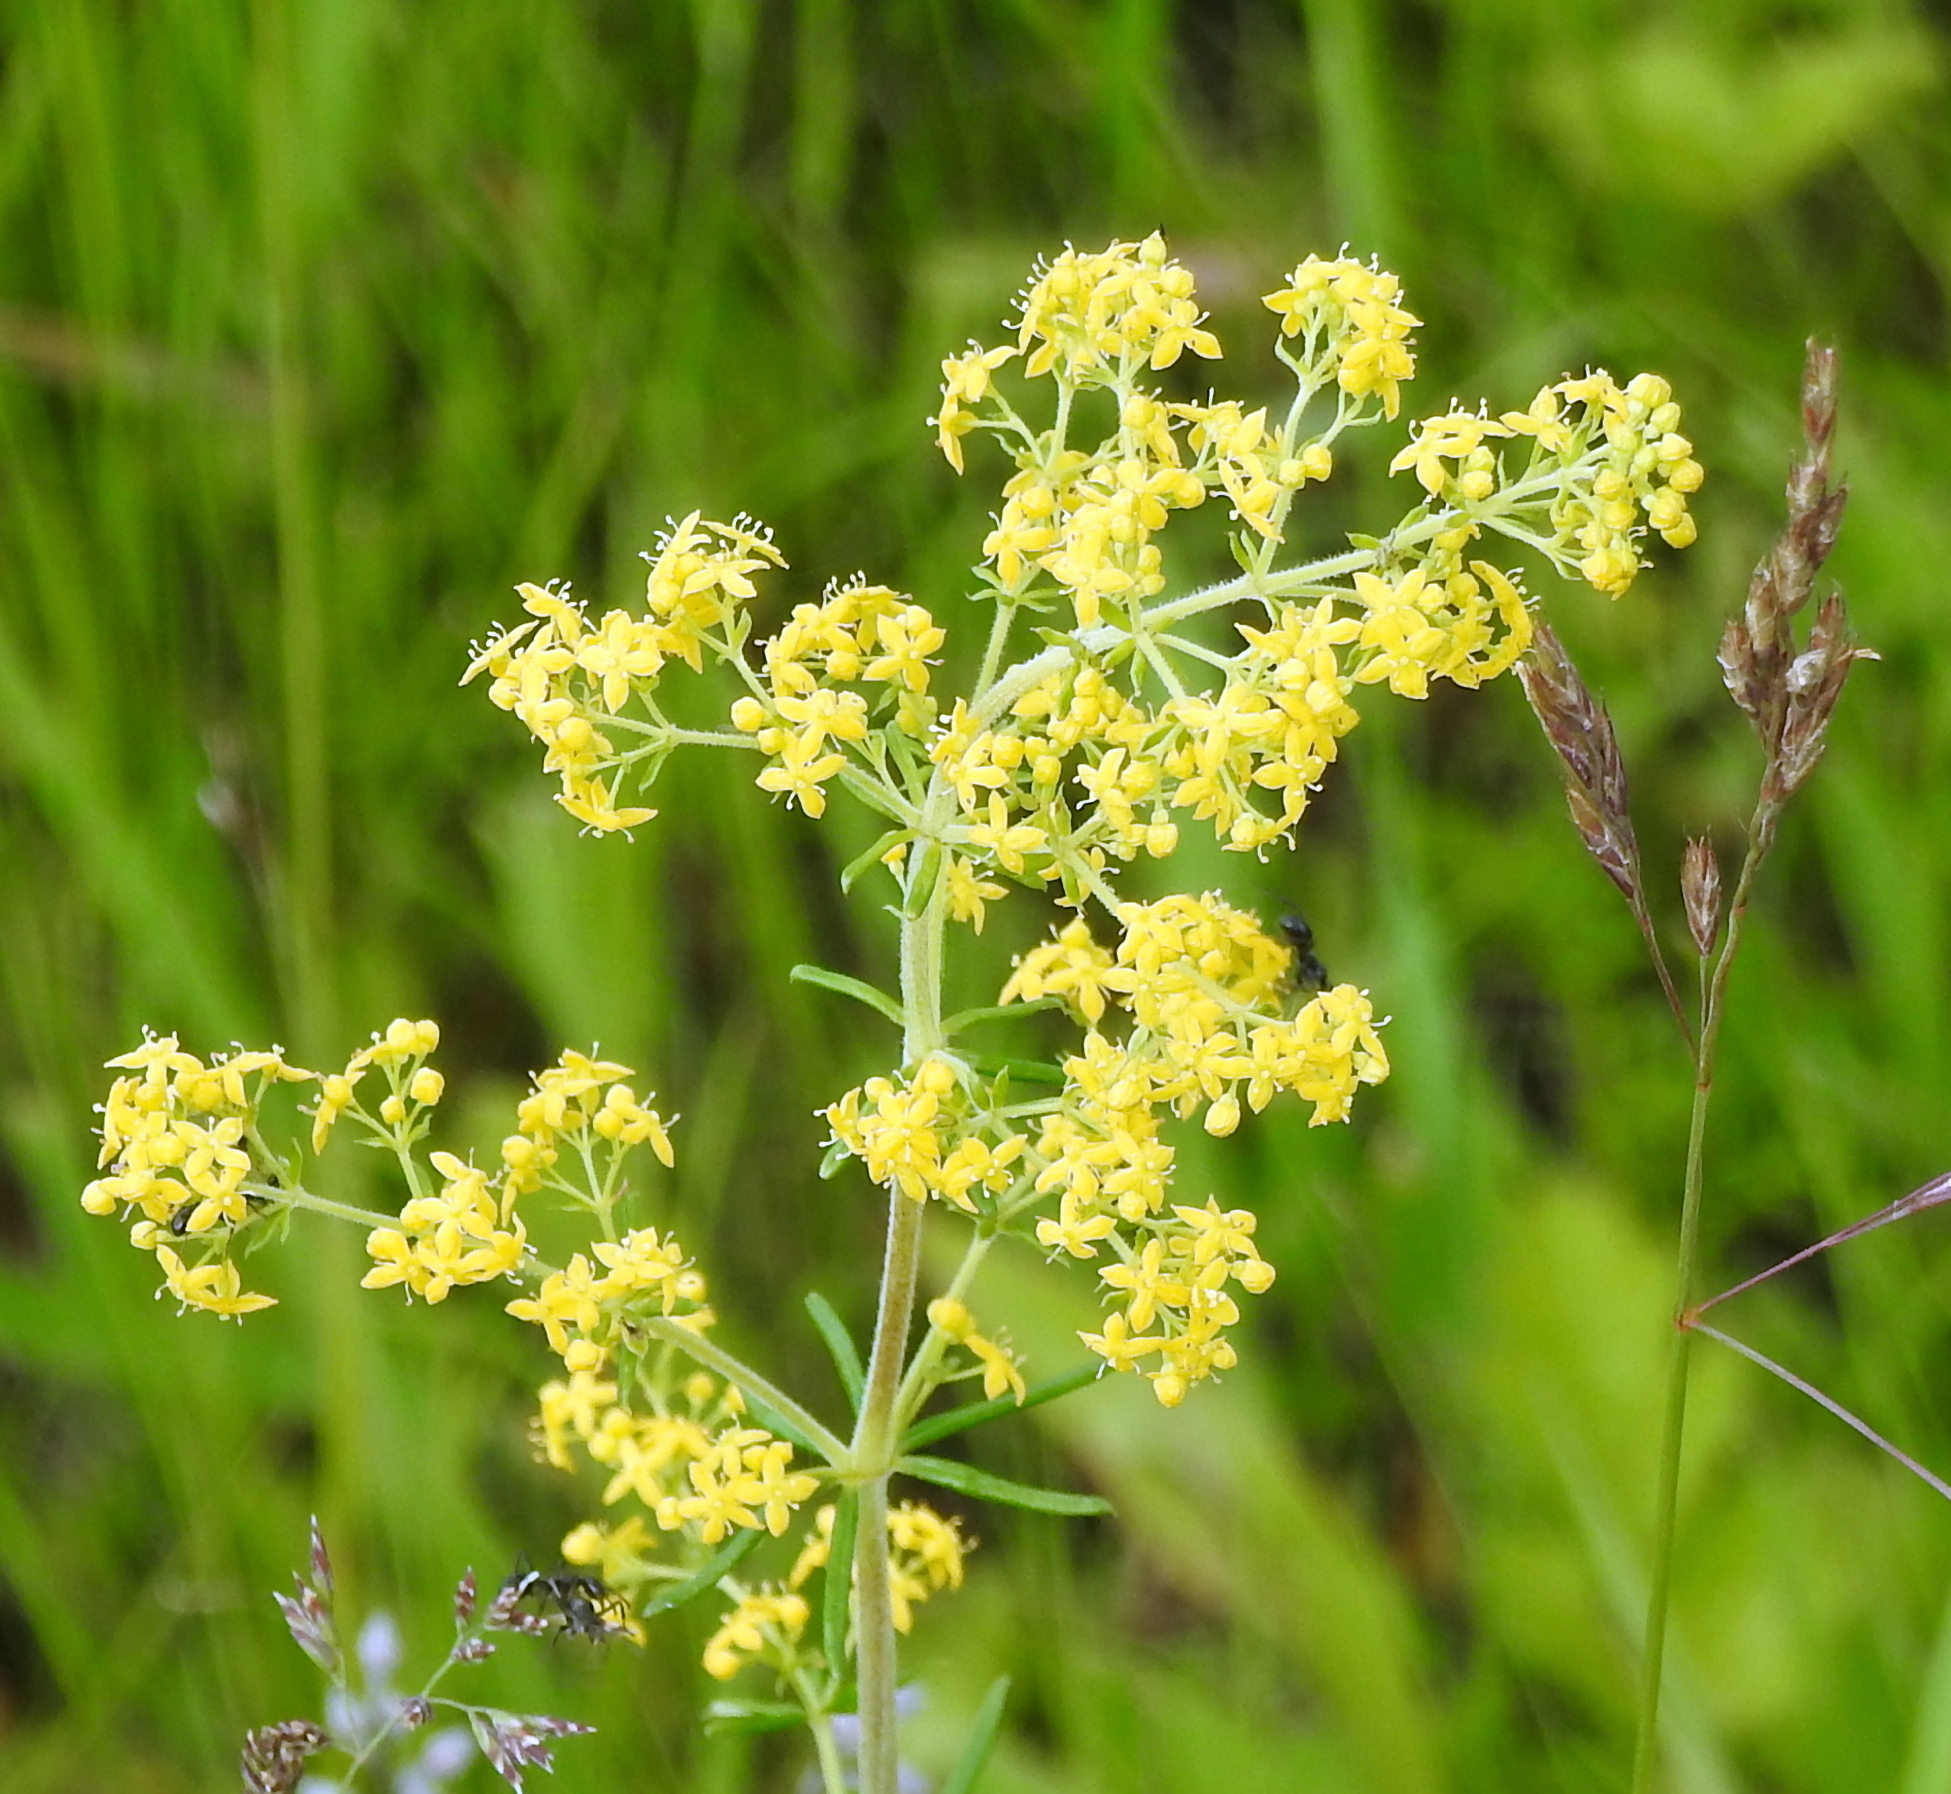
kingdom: Plantae
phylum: Tracheophyta
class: Magnoliopsida
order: Gentianales
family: Rubiaceae
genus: Galium
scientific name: Galium verum
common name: Lady's bedstraw
